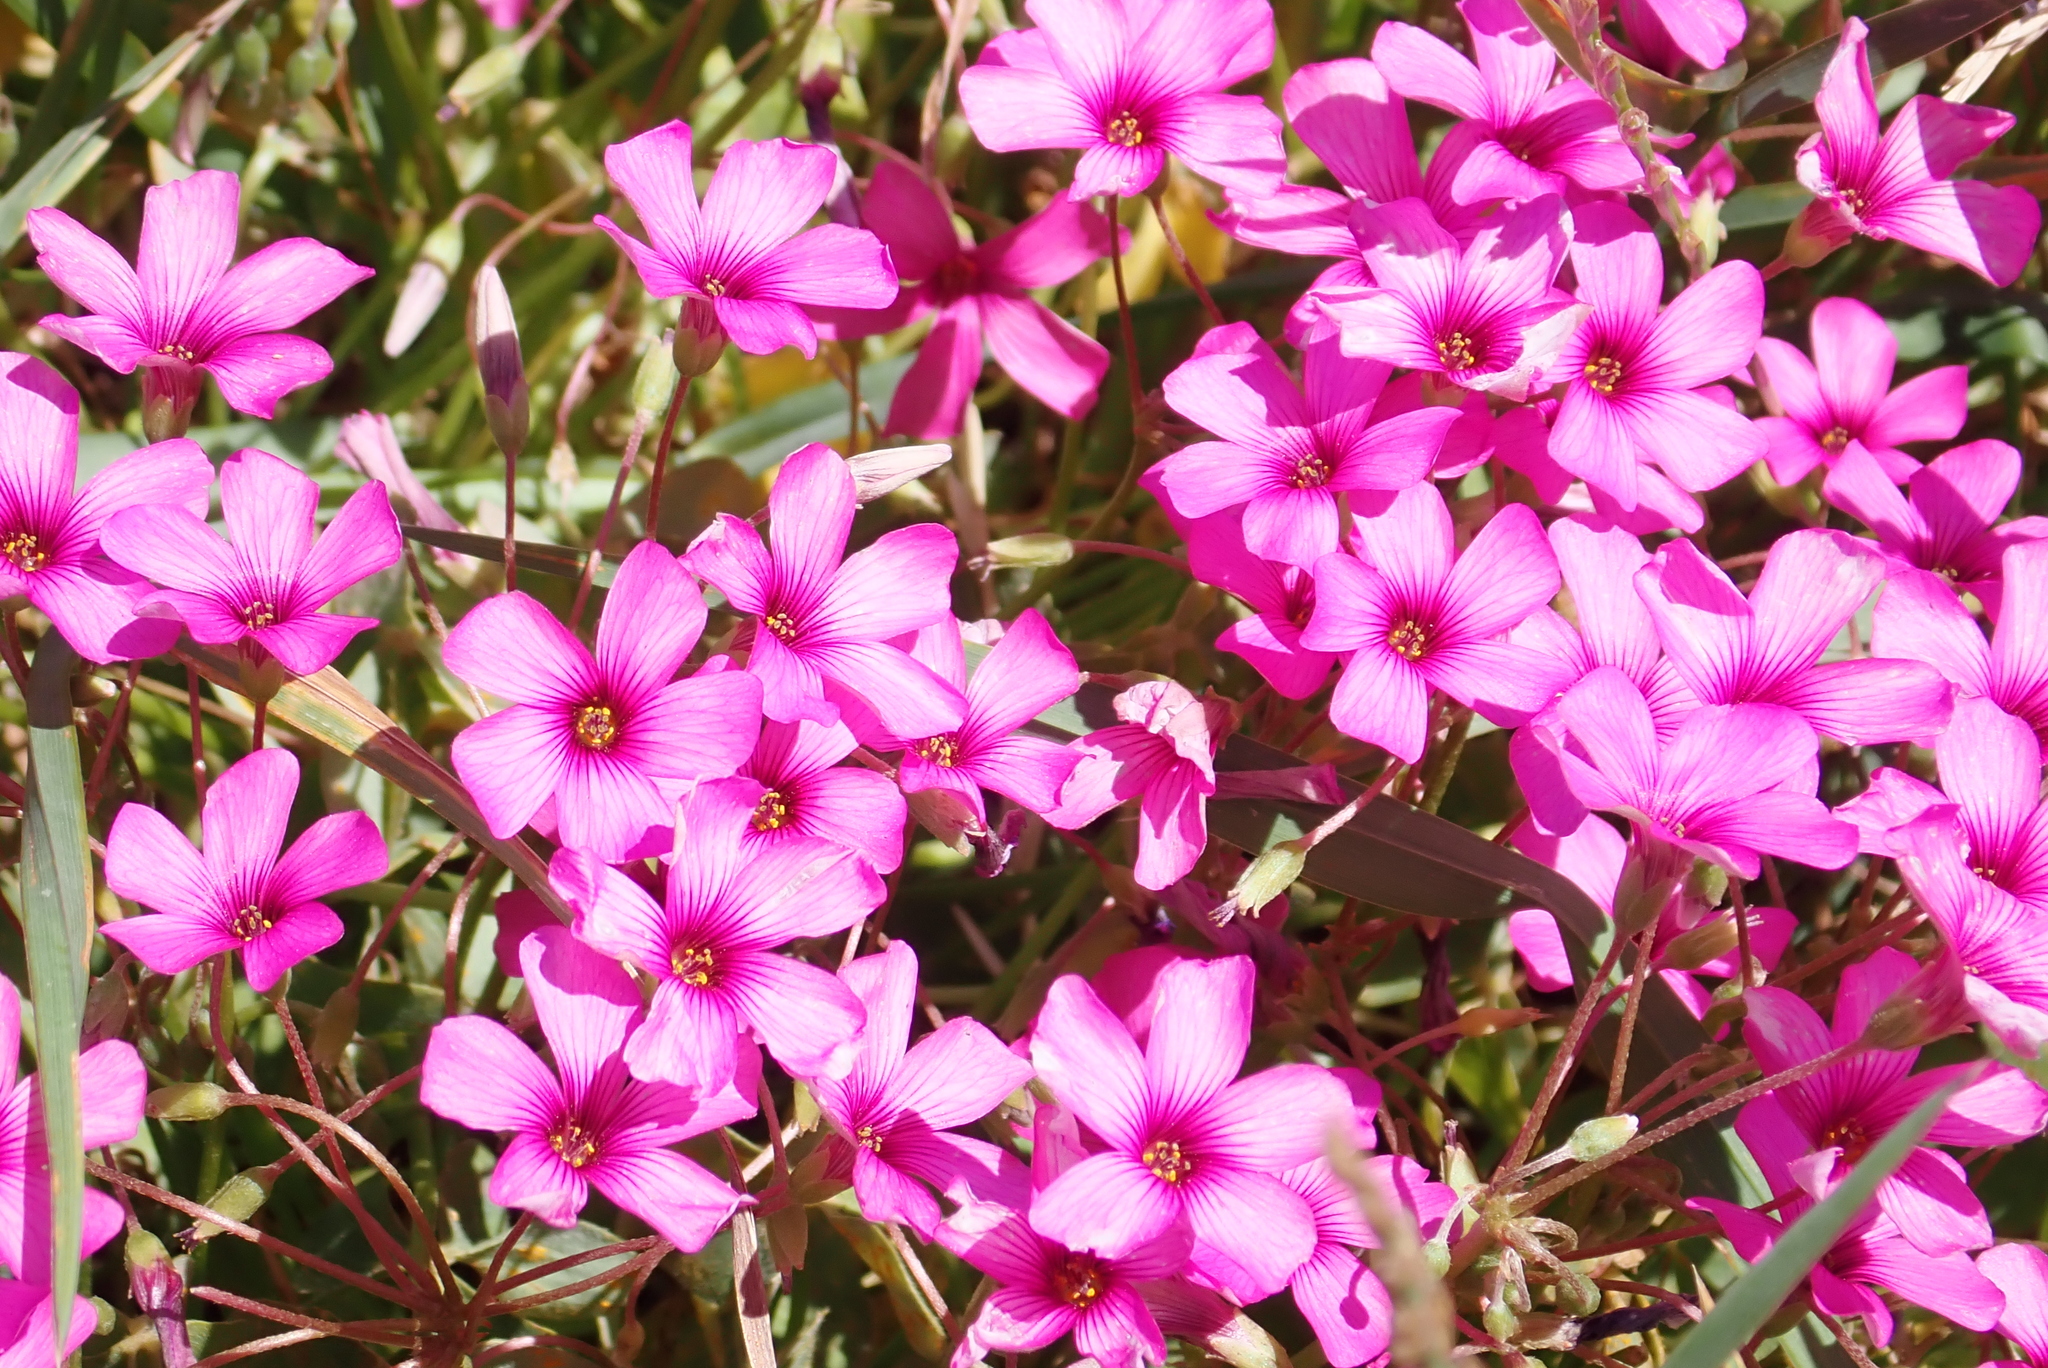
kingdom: Plantae
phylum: Tracheophyta
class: Magnoliopsida
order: Oxalidales
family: Oxalidaceae
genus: Oxalis
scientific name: Oxalis articulata
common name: Pink-sorrel
